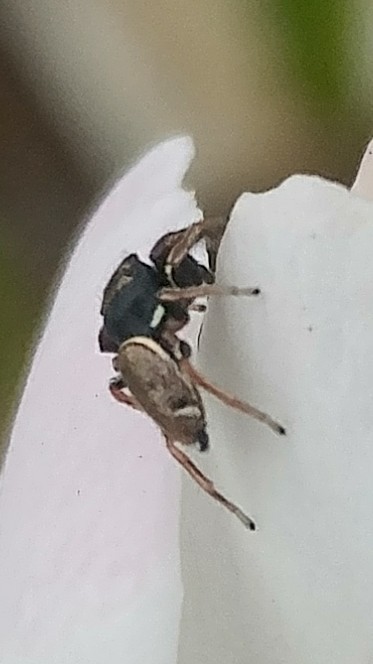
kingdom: Animalia
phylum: Arthropoda
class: Arachnida
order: Araneae
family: Salticidae
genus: Sassacus
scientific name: Sassacus vitis
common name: Jumping spiders
